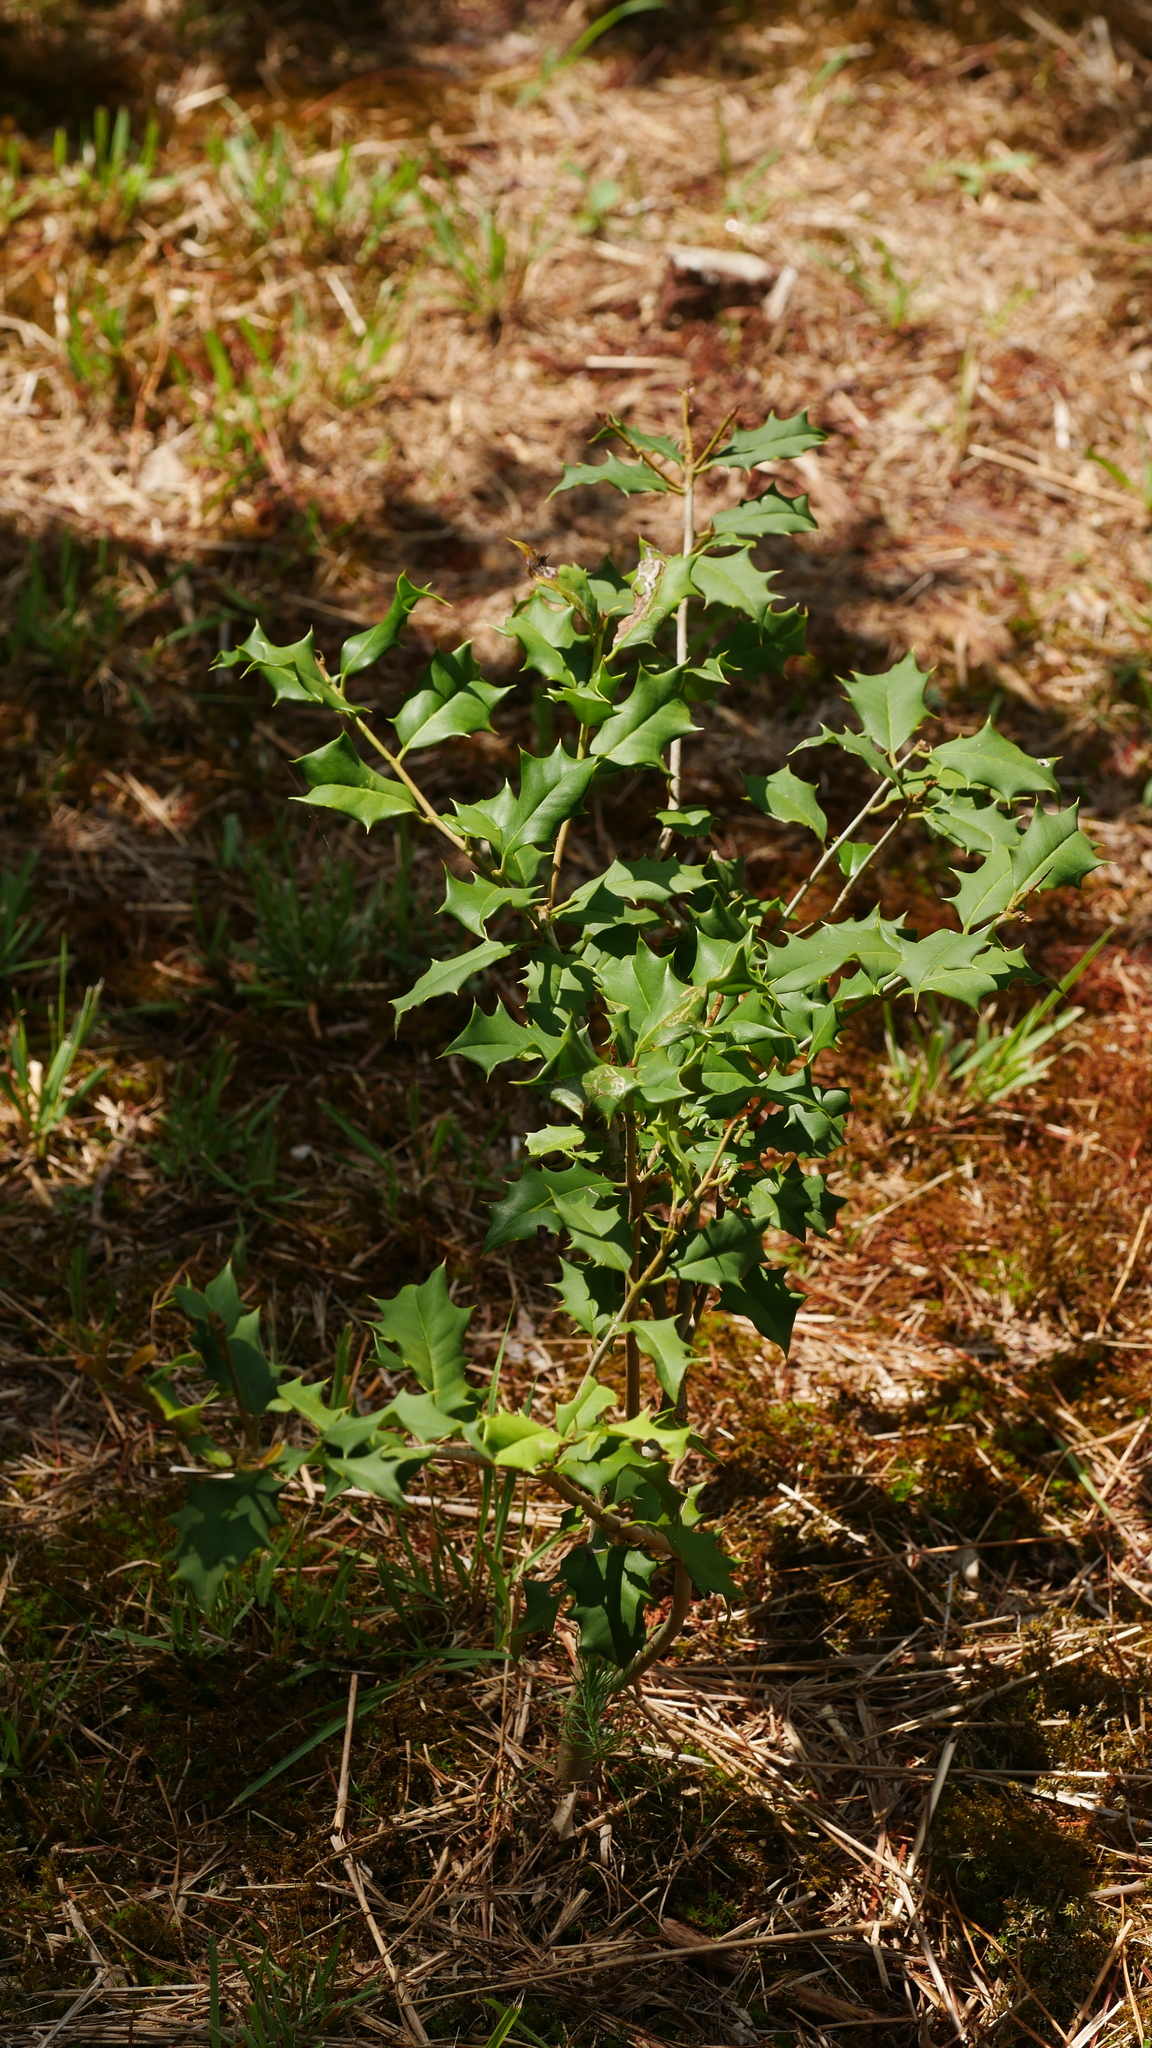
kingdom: Plantae
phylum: Tracheophyta
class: Magnoliopsida
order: Aquifoliales
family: Aquifoliaceae
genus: Ilex
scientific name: Ilex opaca
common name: American holly
